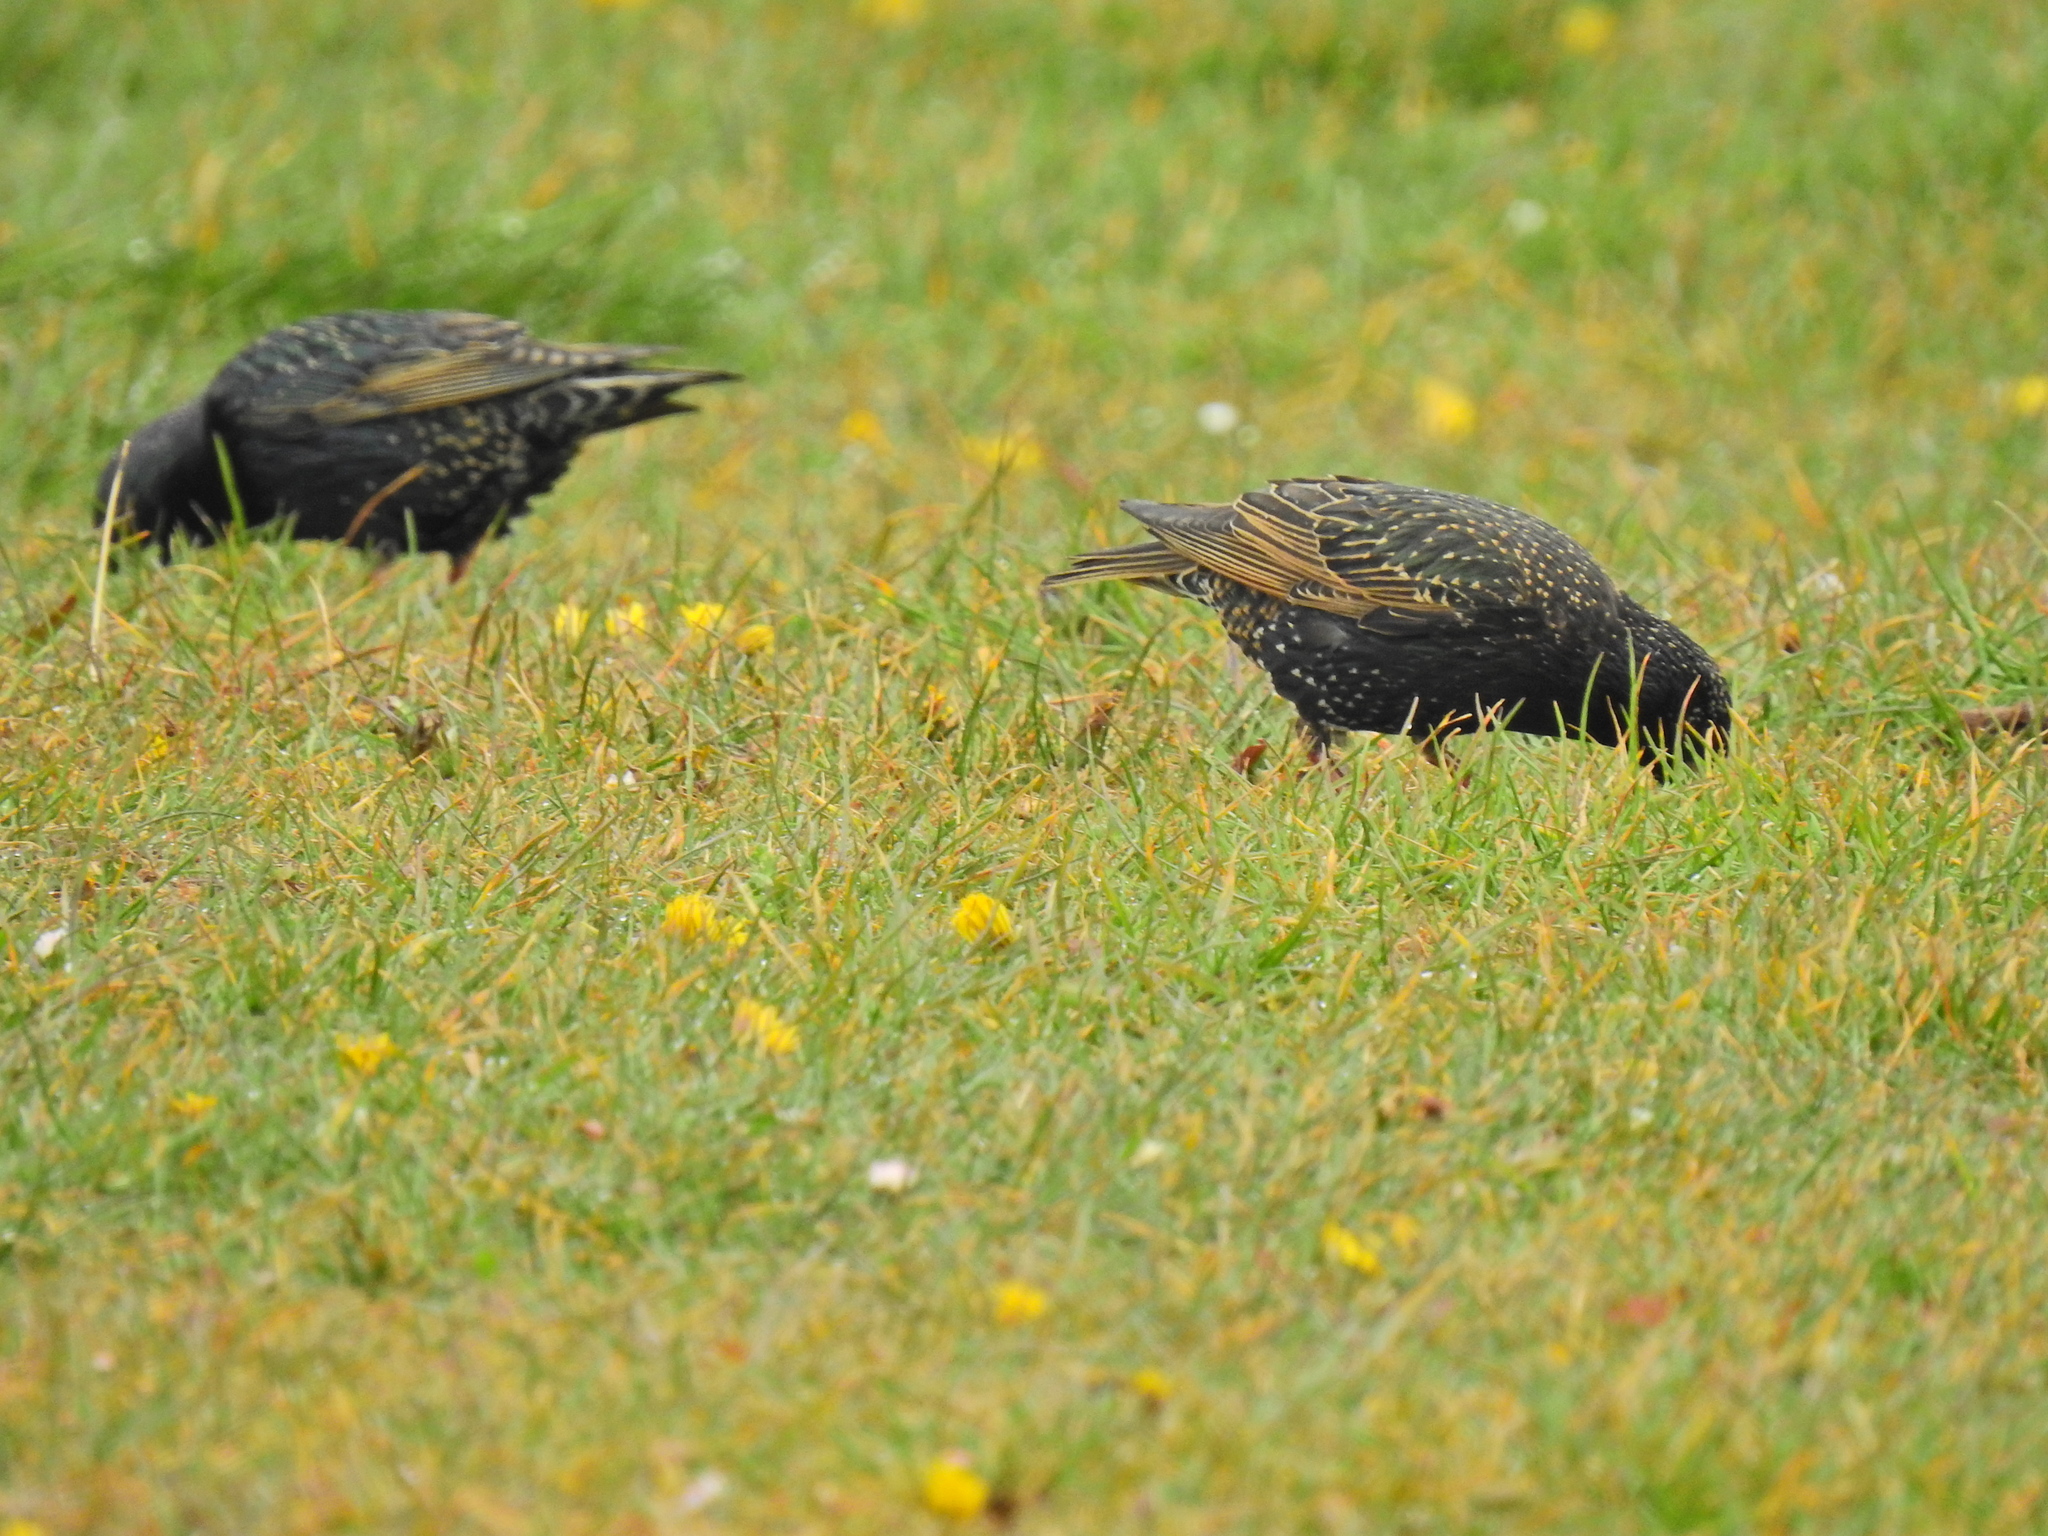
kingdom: Animalia
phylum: Chordata
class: Aves
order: Passeriformes
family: Sturnidae
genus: Sturnus
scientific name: Sturnus vulgaris
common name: Common starling
